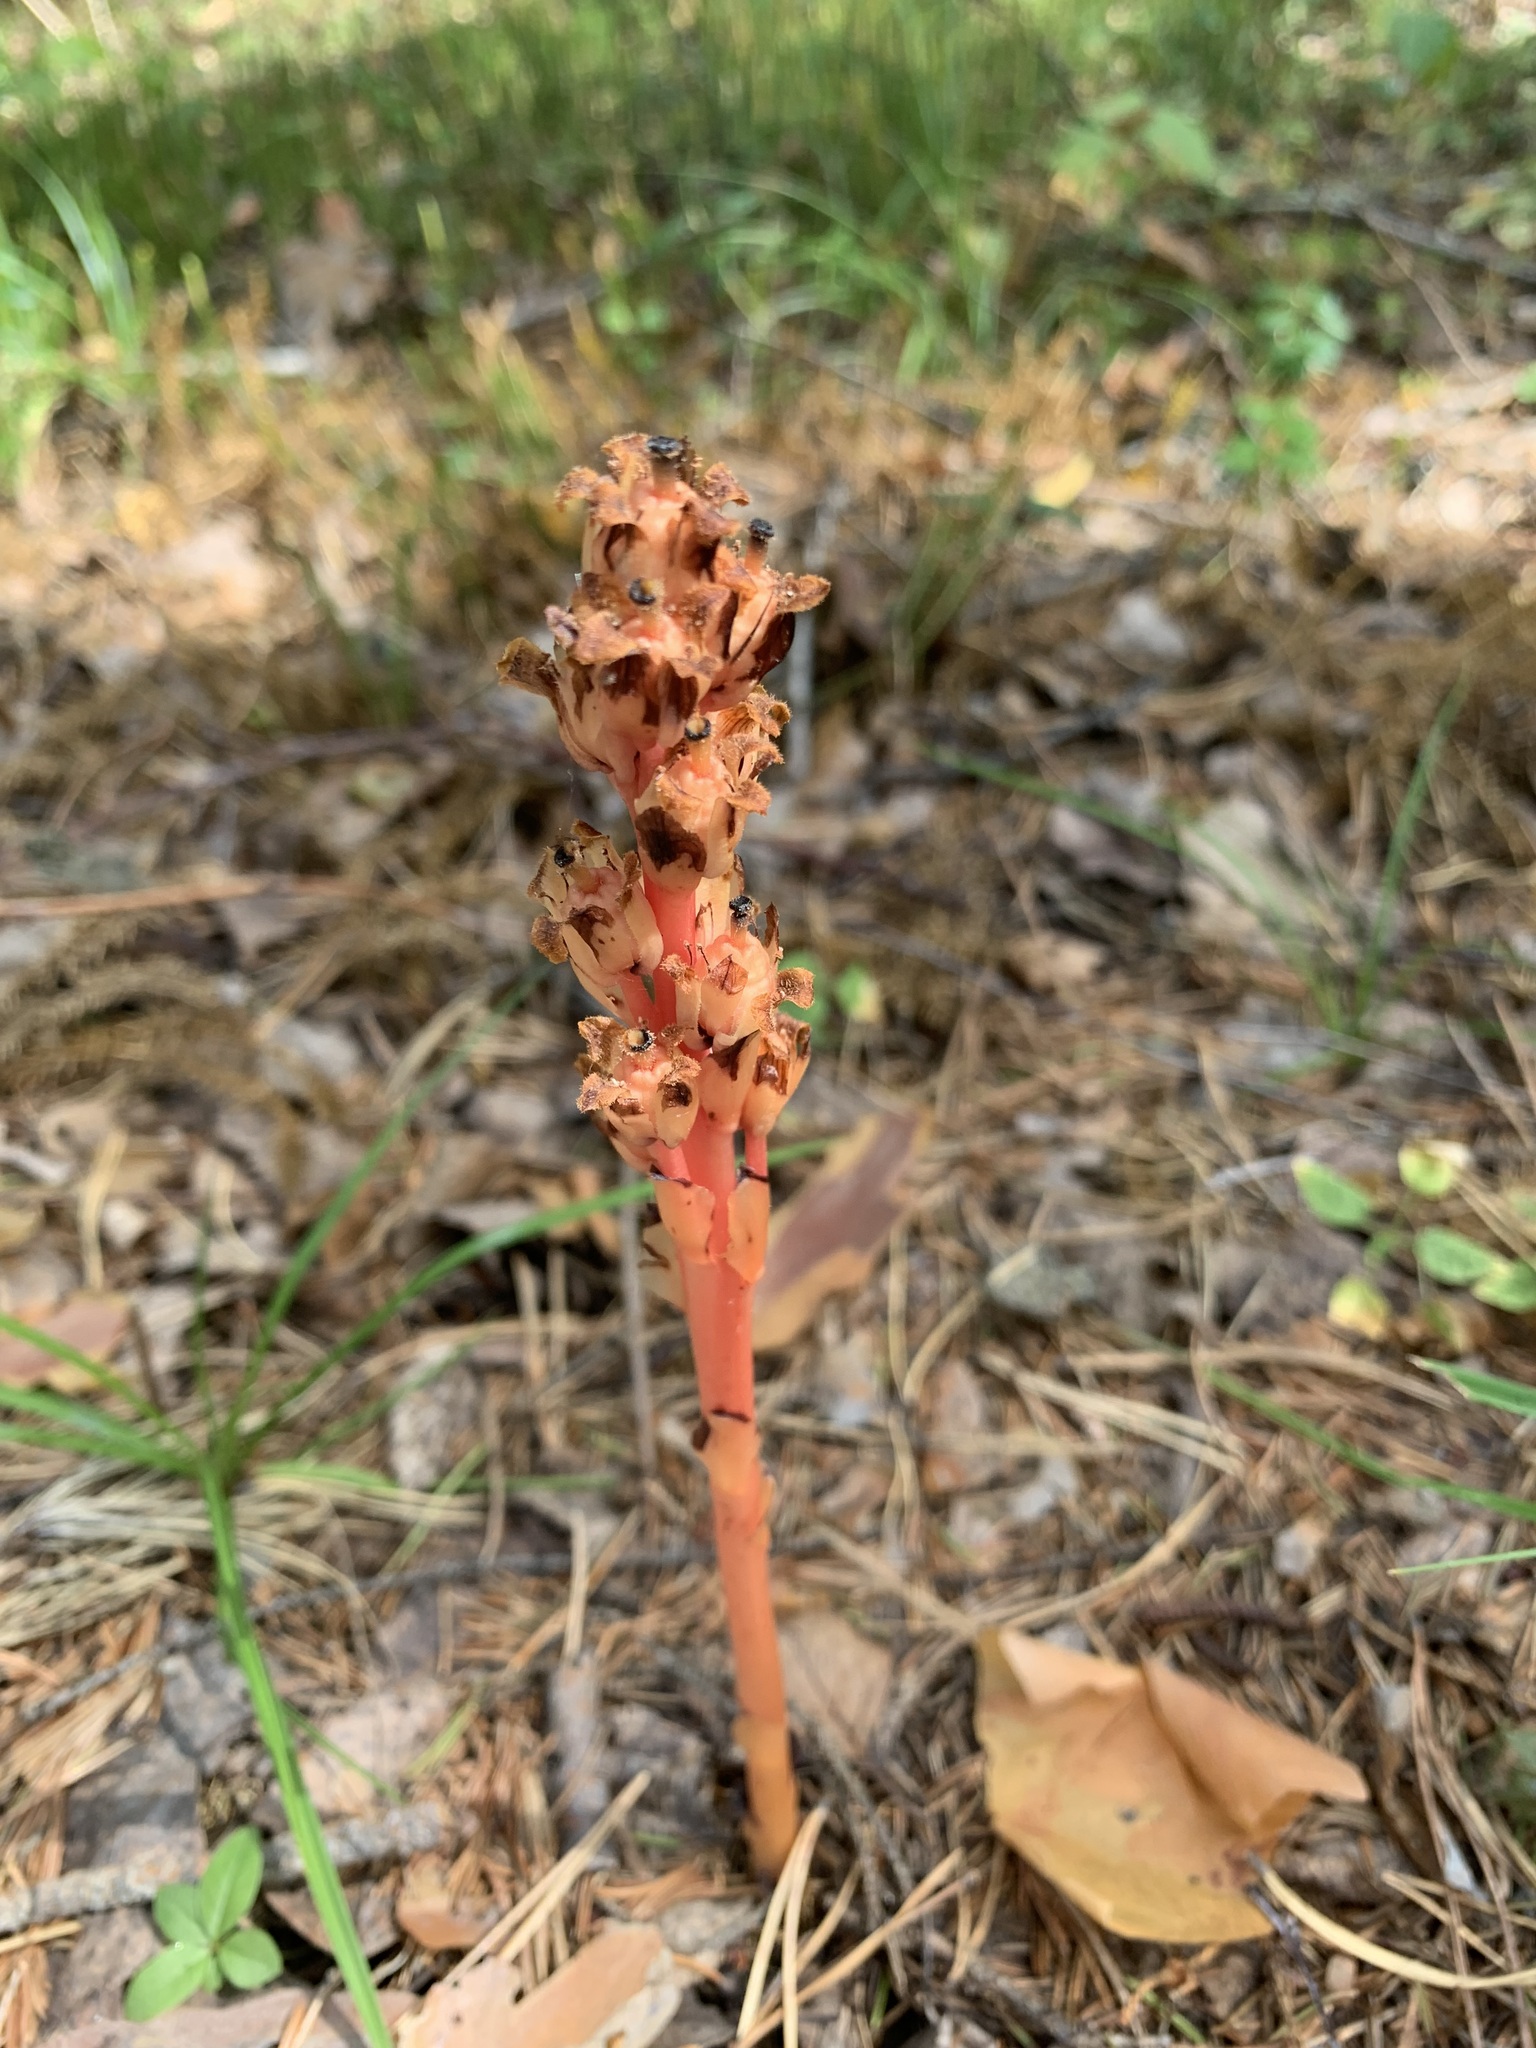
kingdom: Plantae
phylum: Tracheophyta
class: Magnoliopsida
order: Ericales
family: Ericaceae
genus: Hypopitys
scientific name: Hypopitys monotropa
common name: Yellow bird's-nest
